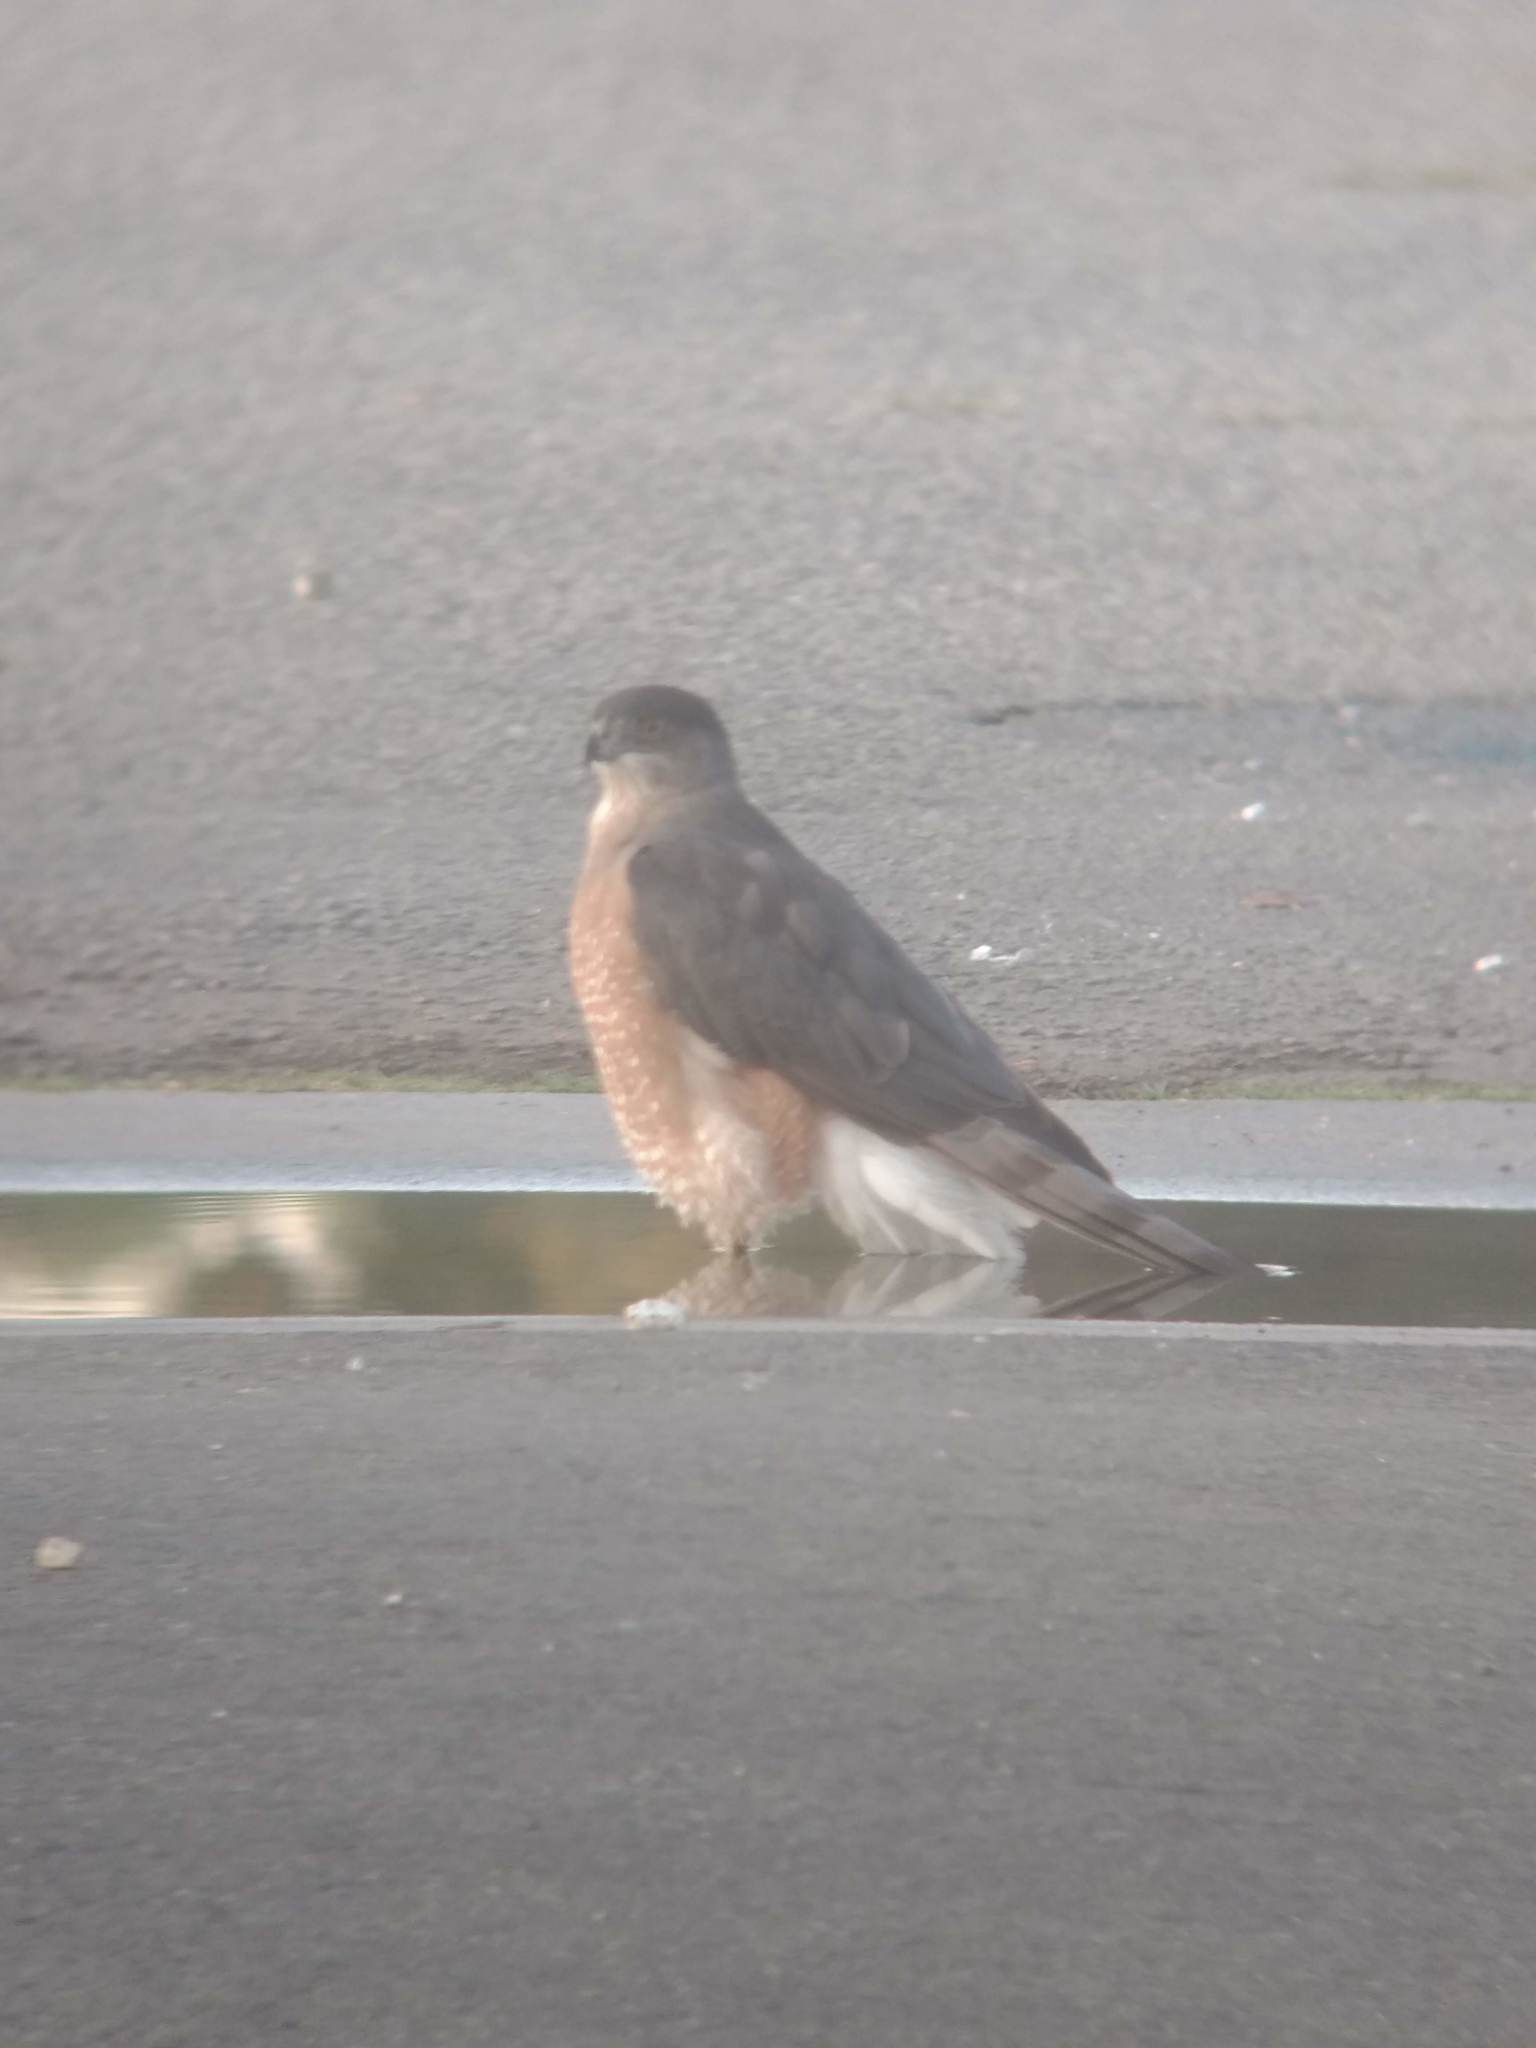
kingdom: Animalia
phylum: Chordata
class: Aves
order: Accipitriformes
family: Accipitridae
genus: Accipiter
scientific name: Accipiter cooperii
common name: Cooper's hawk
